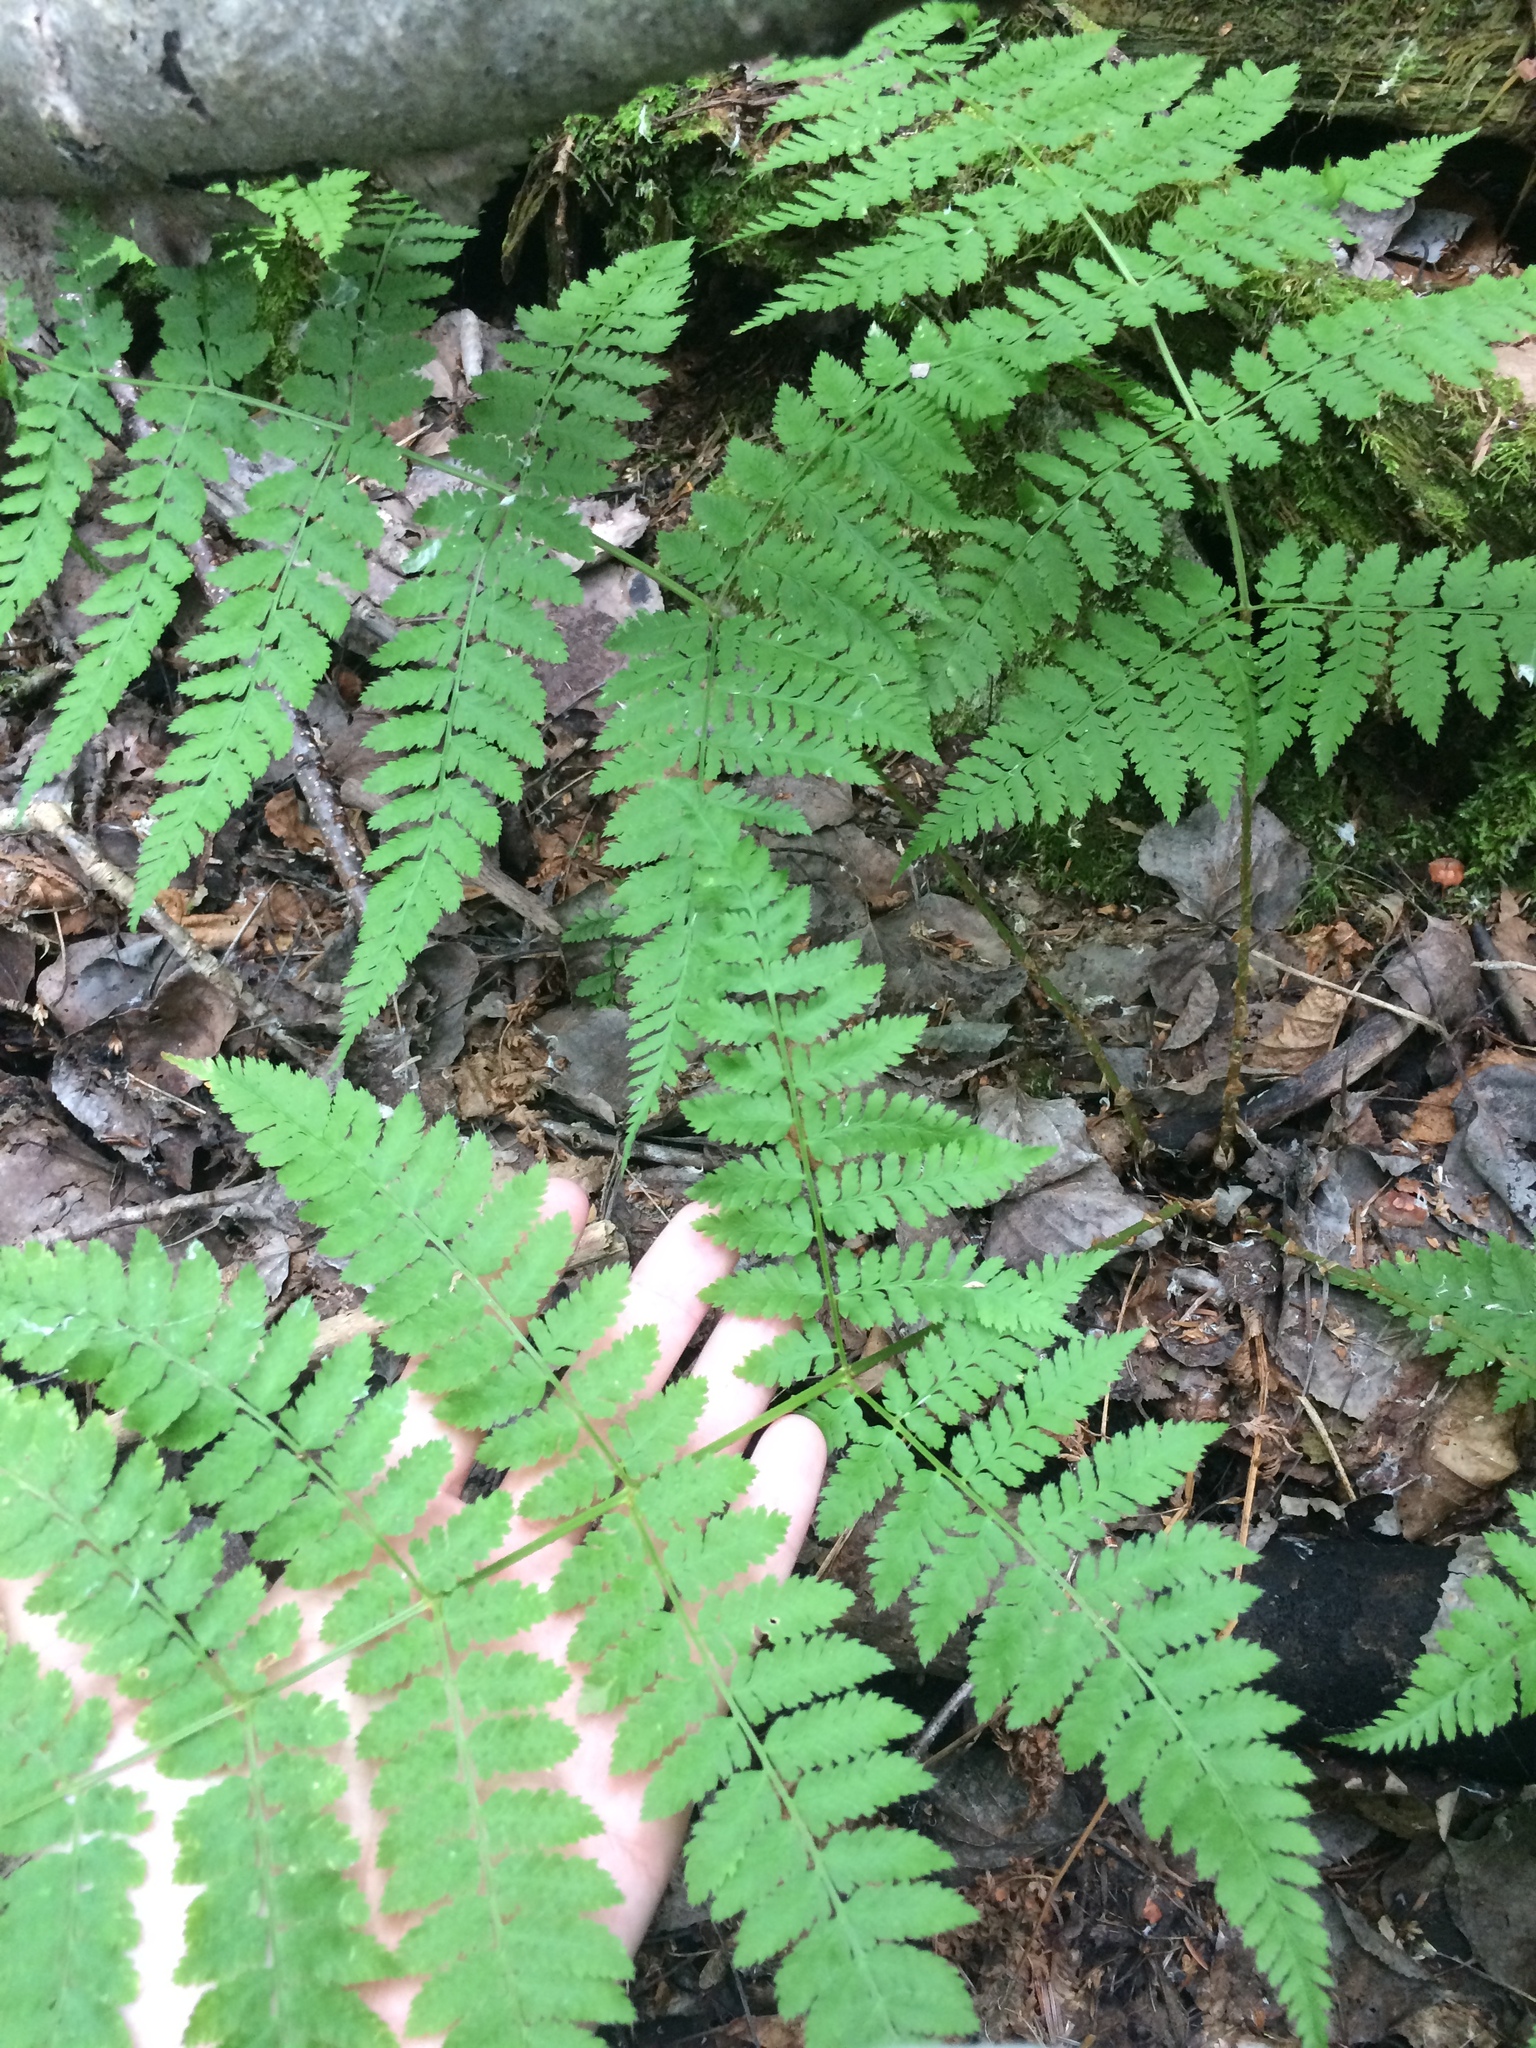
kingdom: Plantae
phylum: Tracheophyta
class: Polypodiopsida
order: Polypodiales
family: Dryopteridaceae
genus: Dryopteris
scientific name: Dryopteris campyloptera
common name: Mountain wood fern
